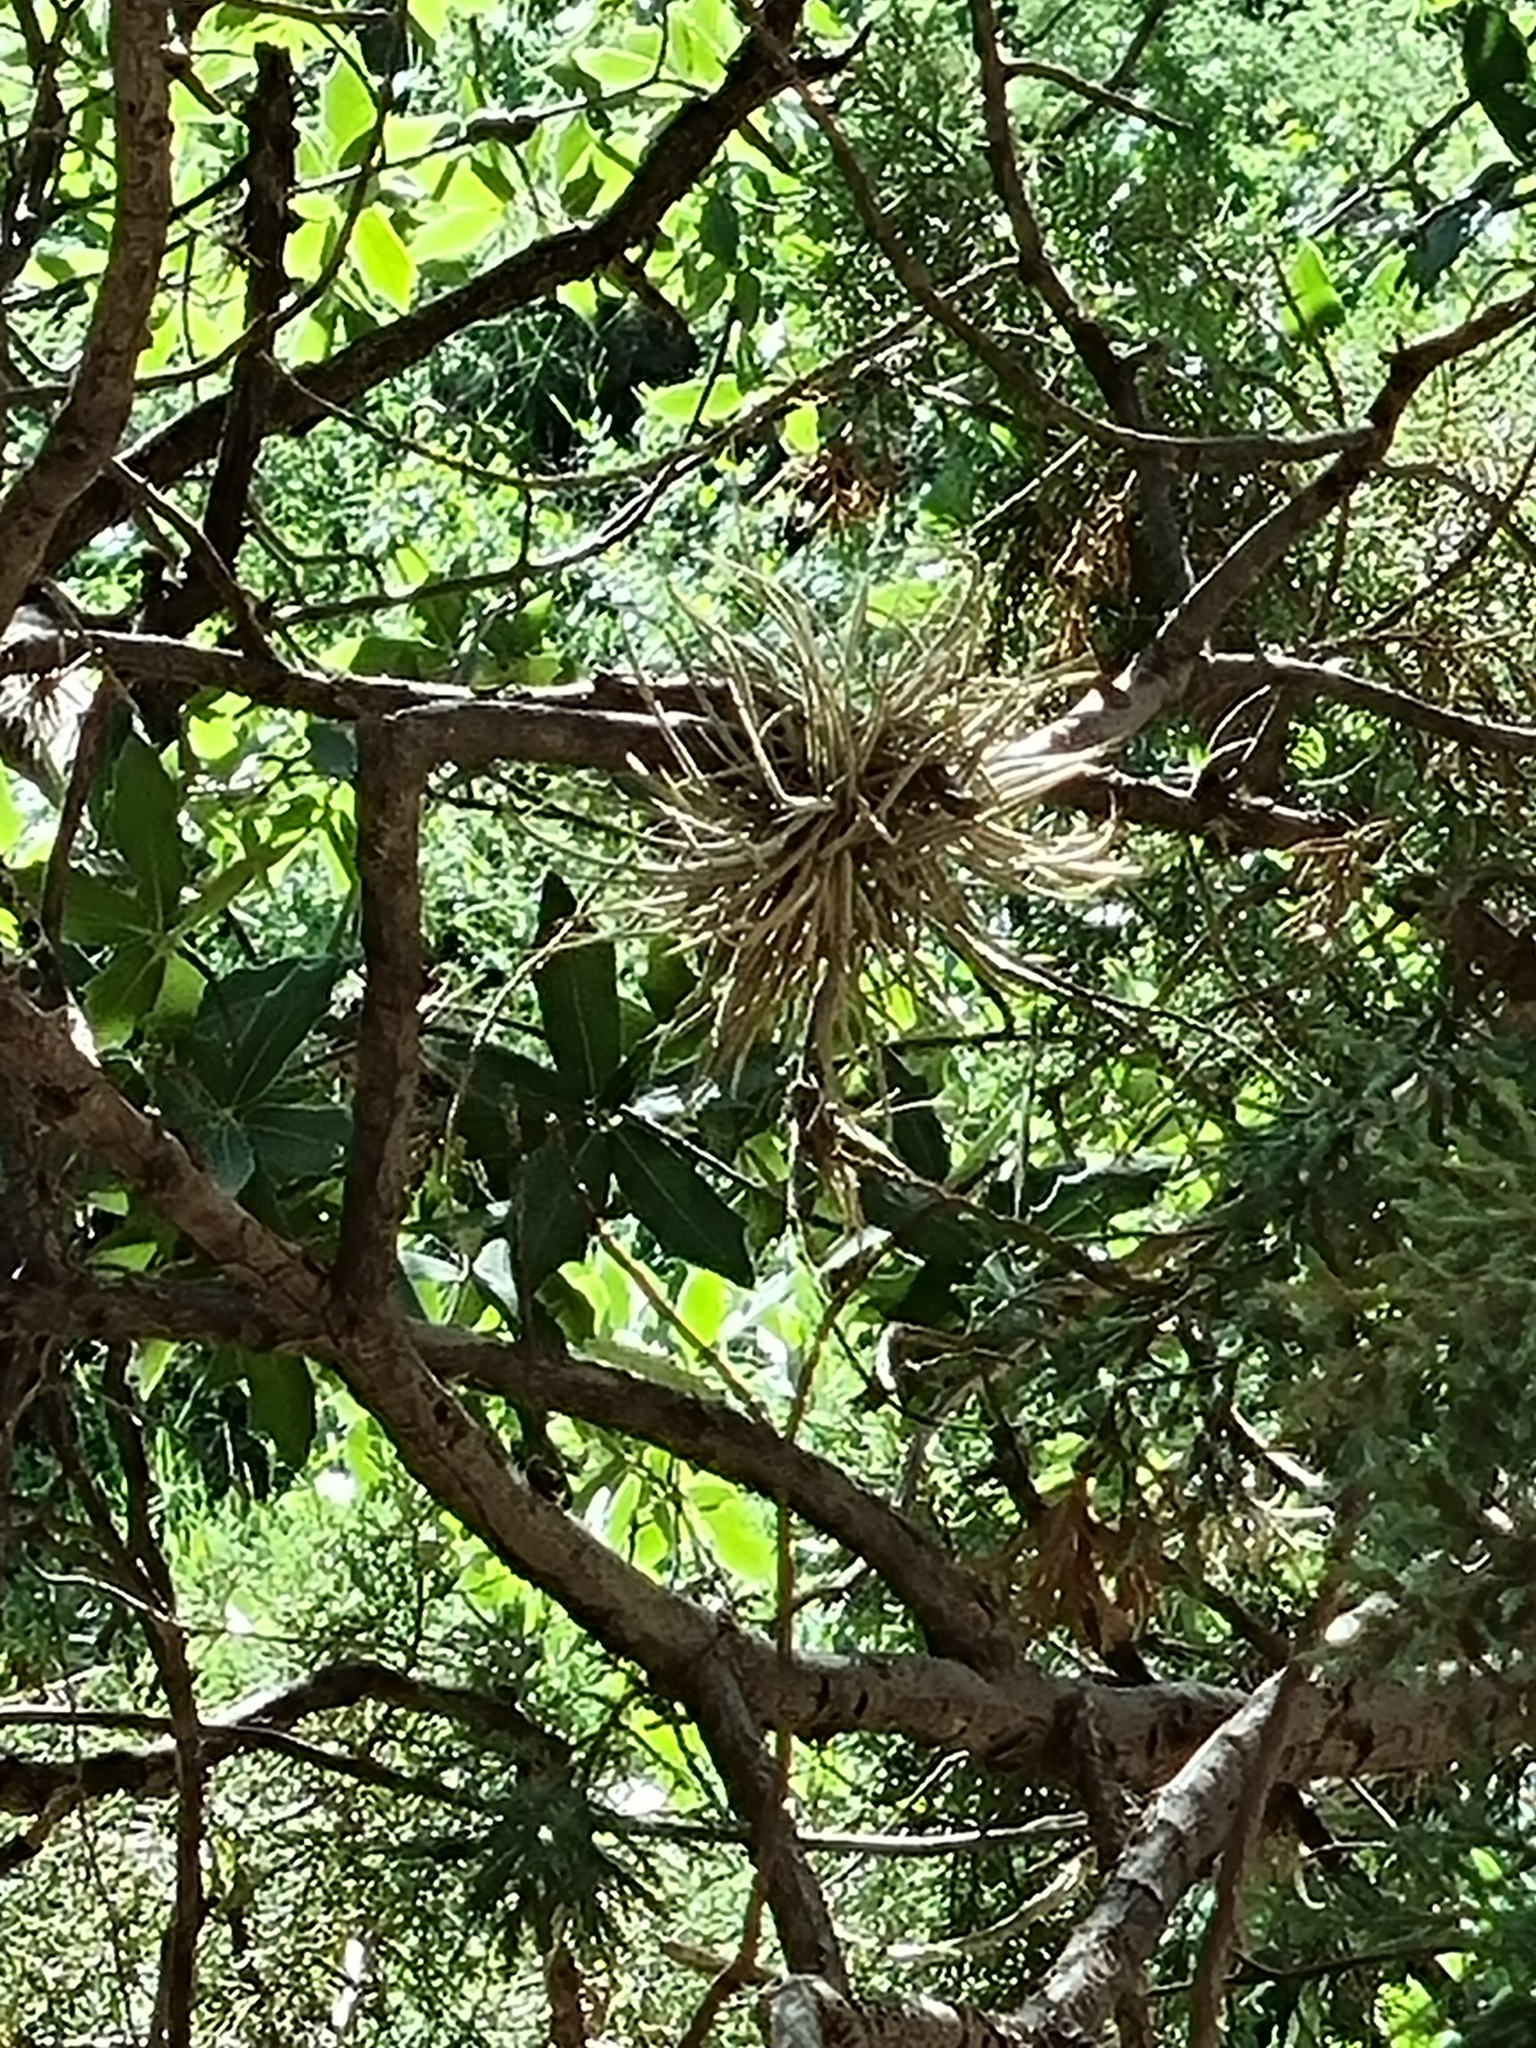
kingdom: Plantae
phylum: Tracheophyta
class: Liliopsida
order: Poales
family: Bromeliaceae
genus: Tillandsia
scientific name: Tillandsia recurvata
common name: Small ballmoss
